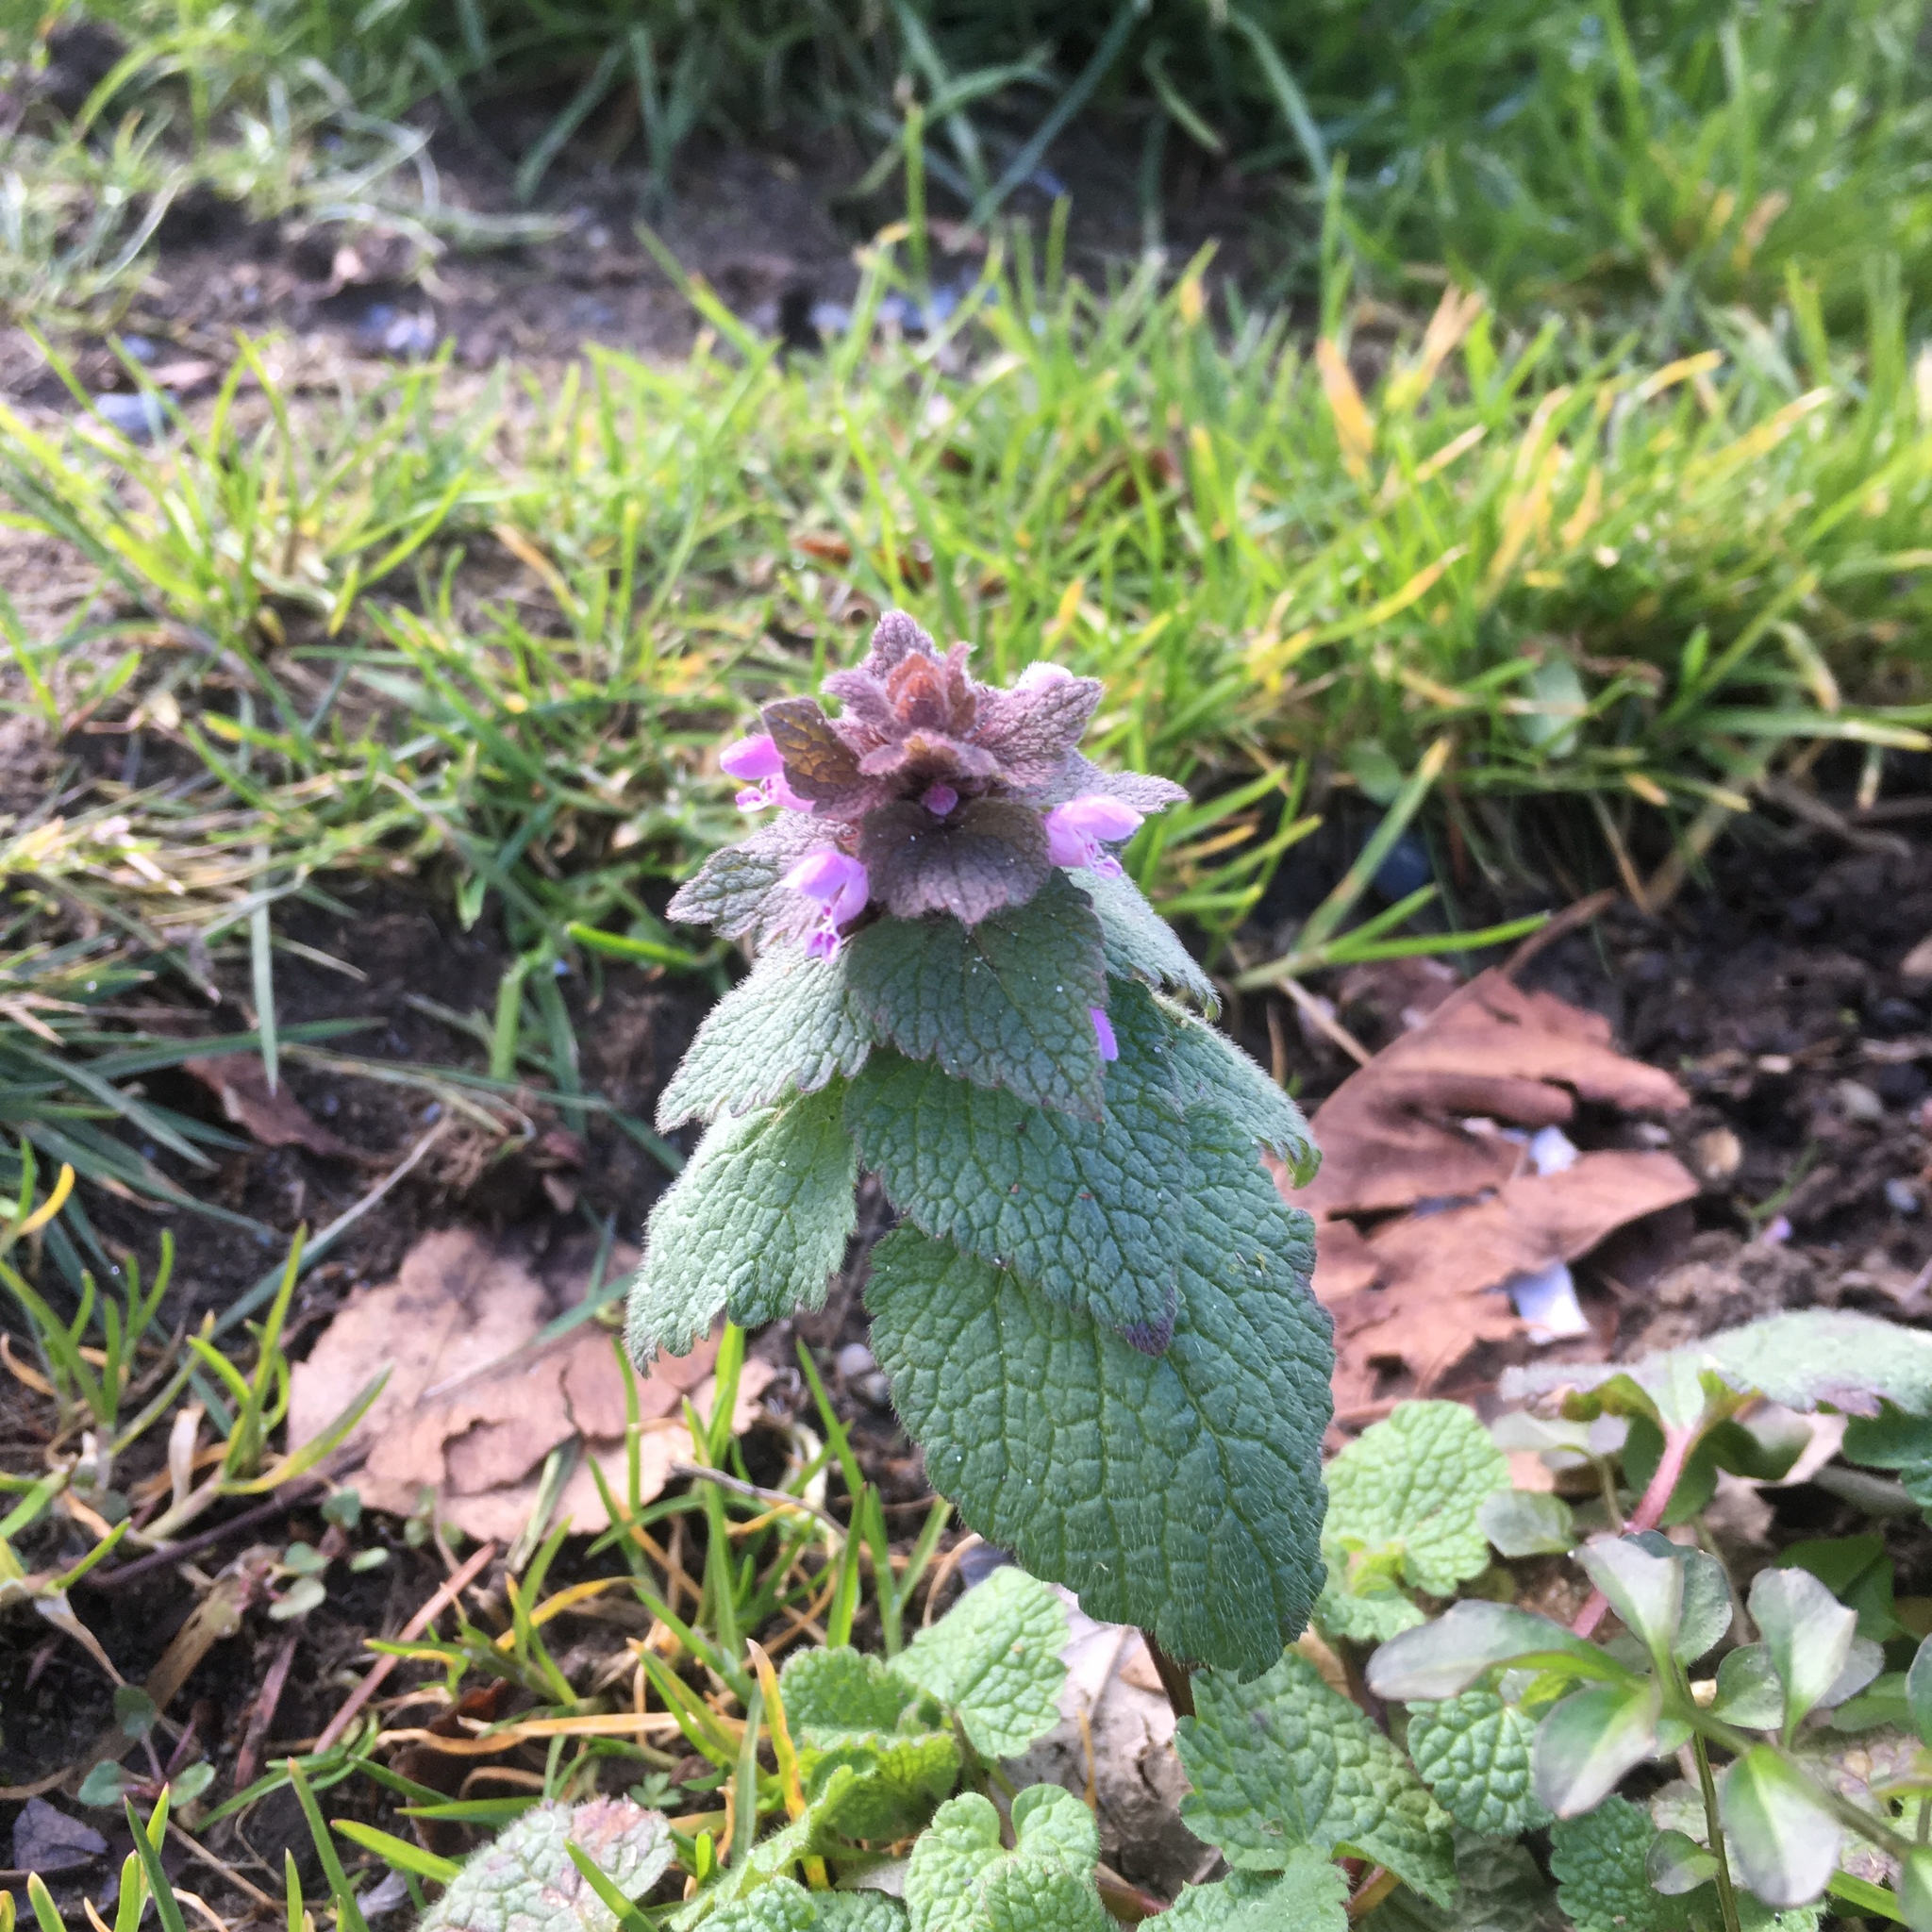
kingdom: Plantae
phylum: Tracheophyta
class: Magnoliopsida
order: Lamiales
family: Lamiaceae
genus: Lamium
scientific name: Lamium purpureum
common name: Red dead-nettle
